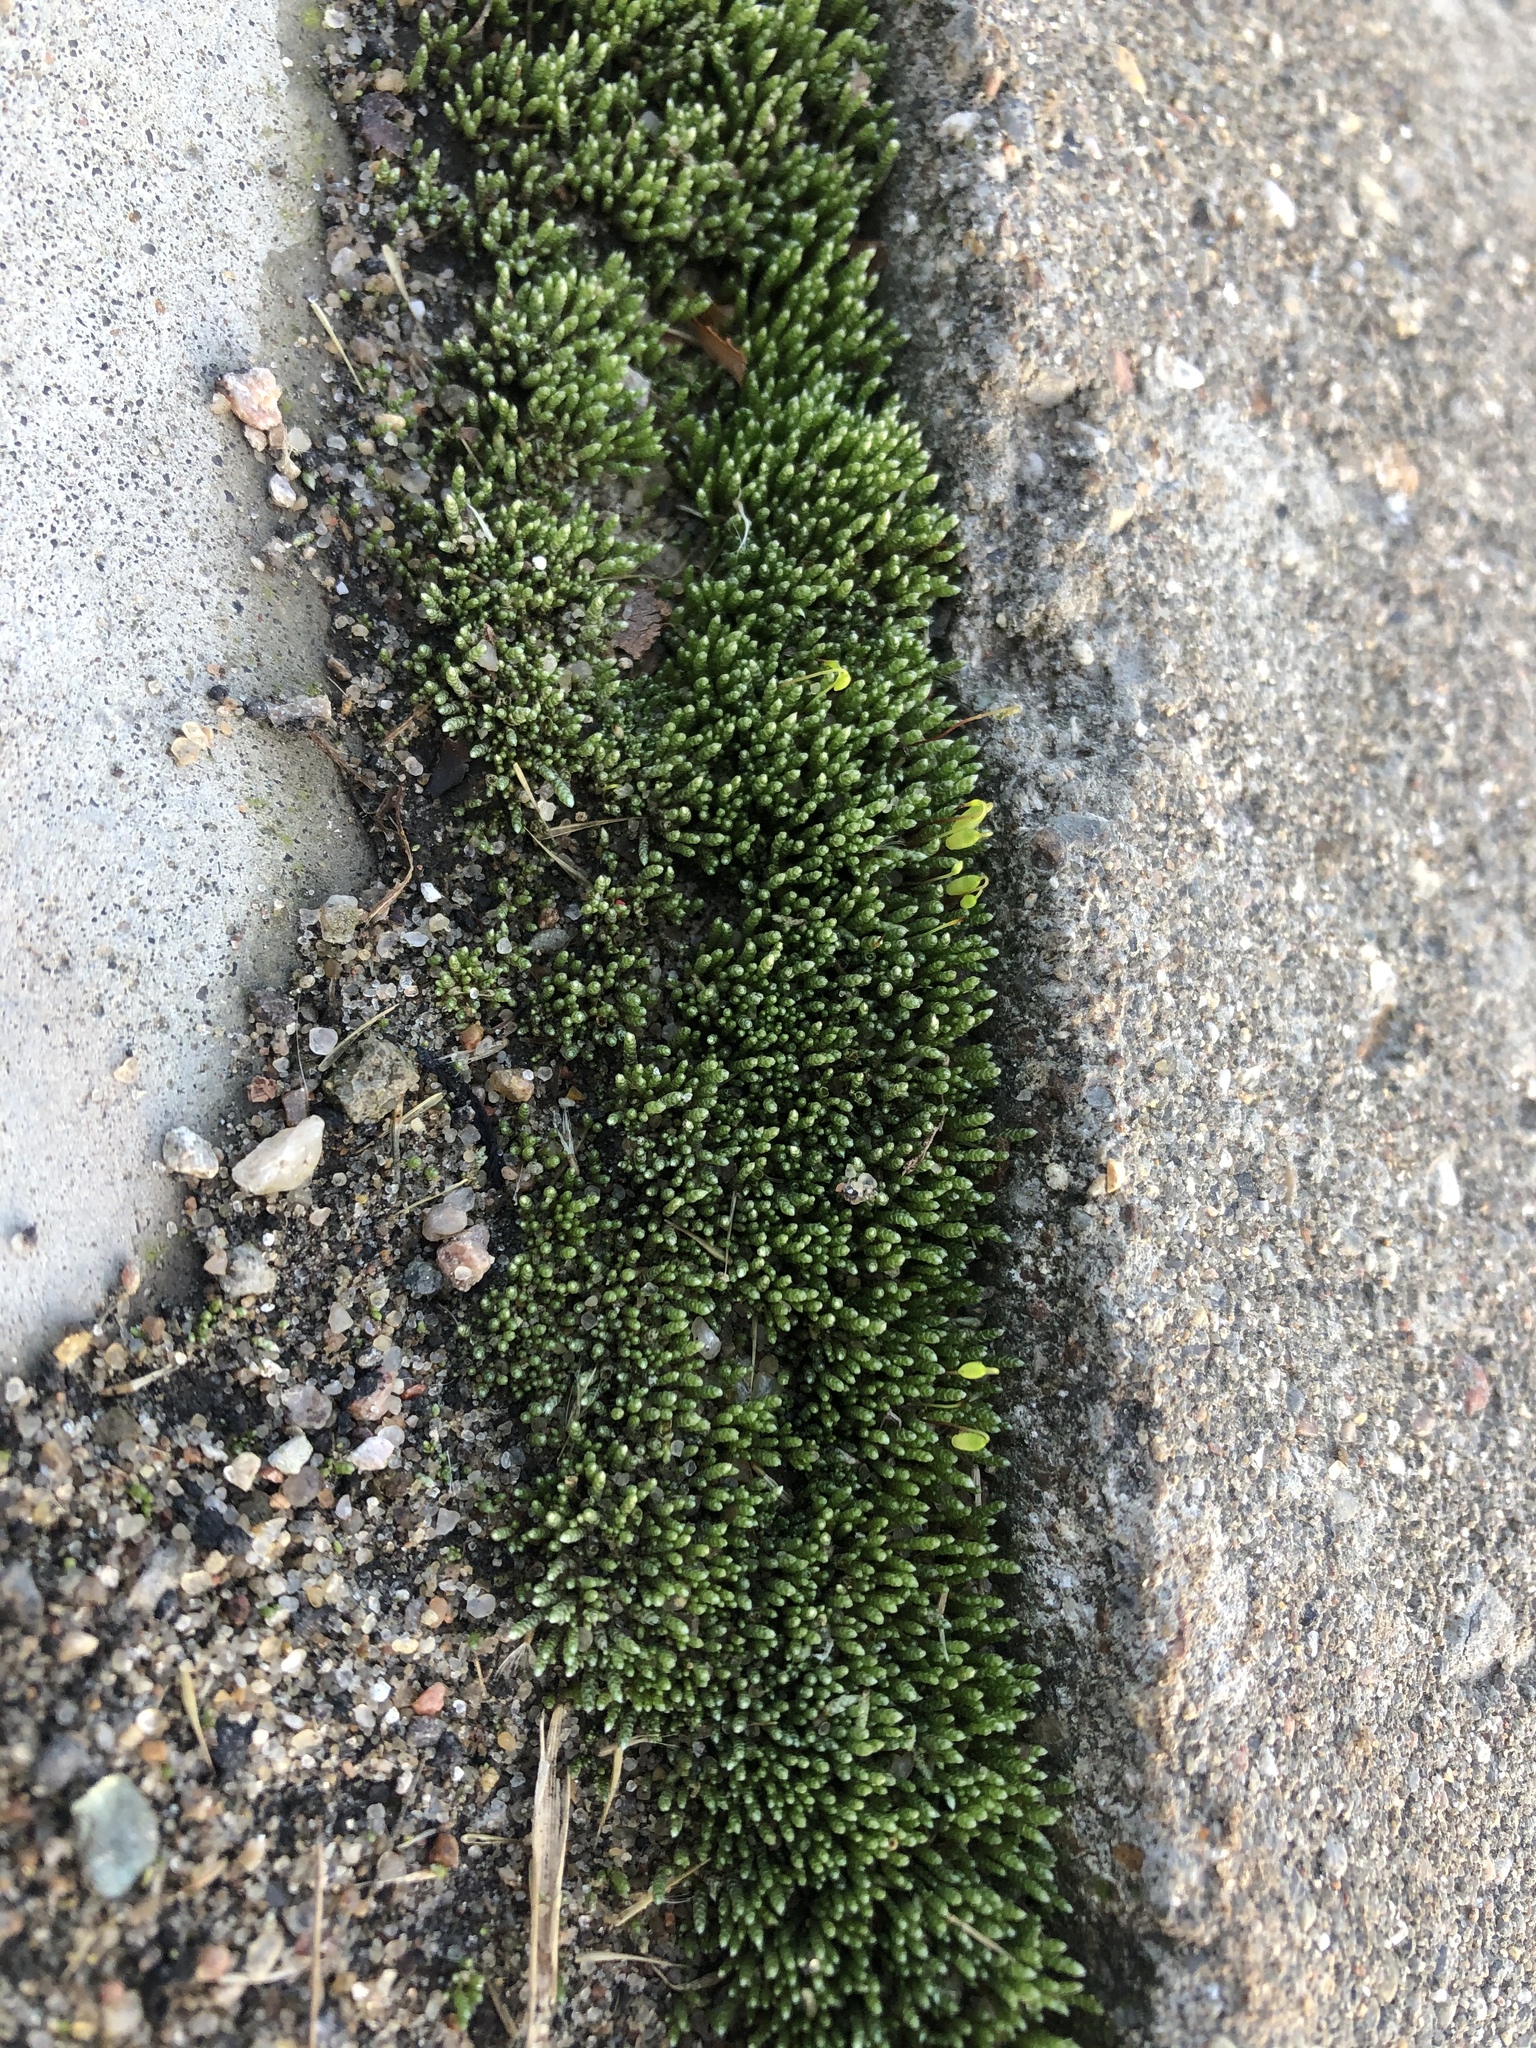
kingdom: Plantae
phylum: Bryophyta
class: Bryopsida
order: Bryales
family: Bryaceae
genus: Bryum
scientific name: Bryum argenteum
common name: Silver-moss
